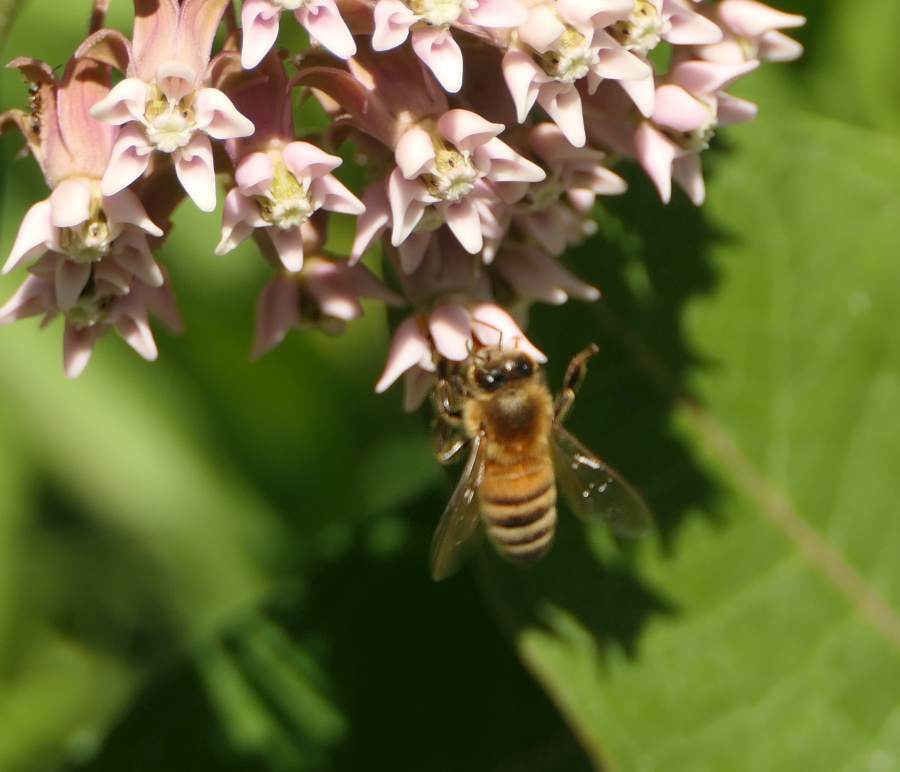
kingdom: Animalia
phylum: Arthropoda
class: Insecta
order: Hymenoptera
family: Apidae
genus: Apis
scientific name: Apis mellifera
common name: Honey bee
